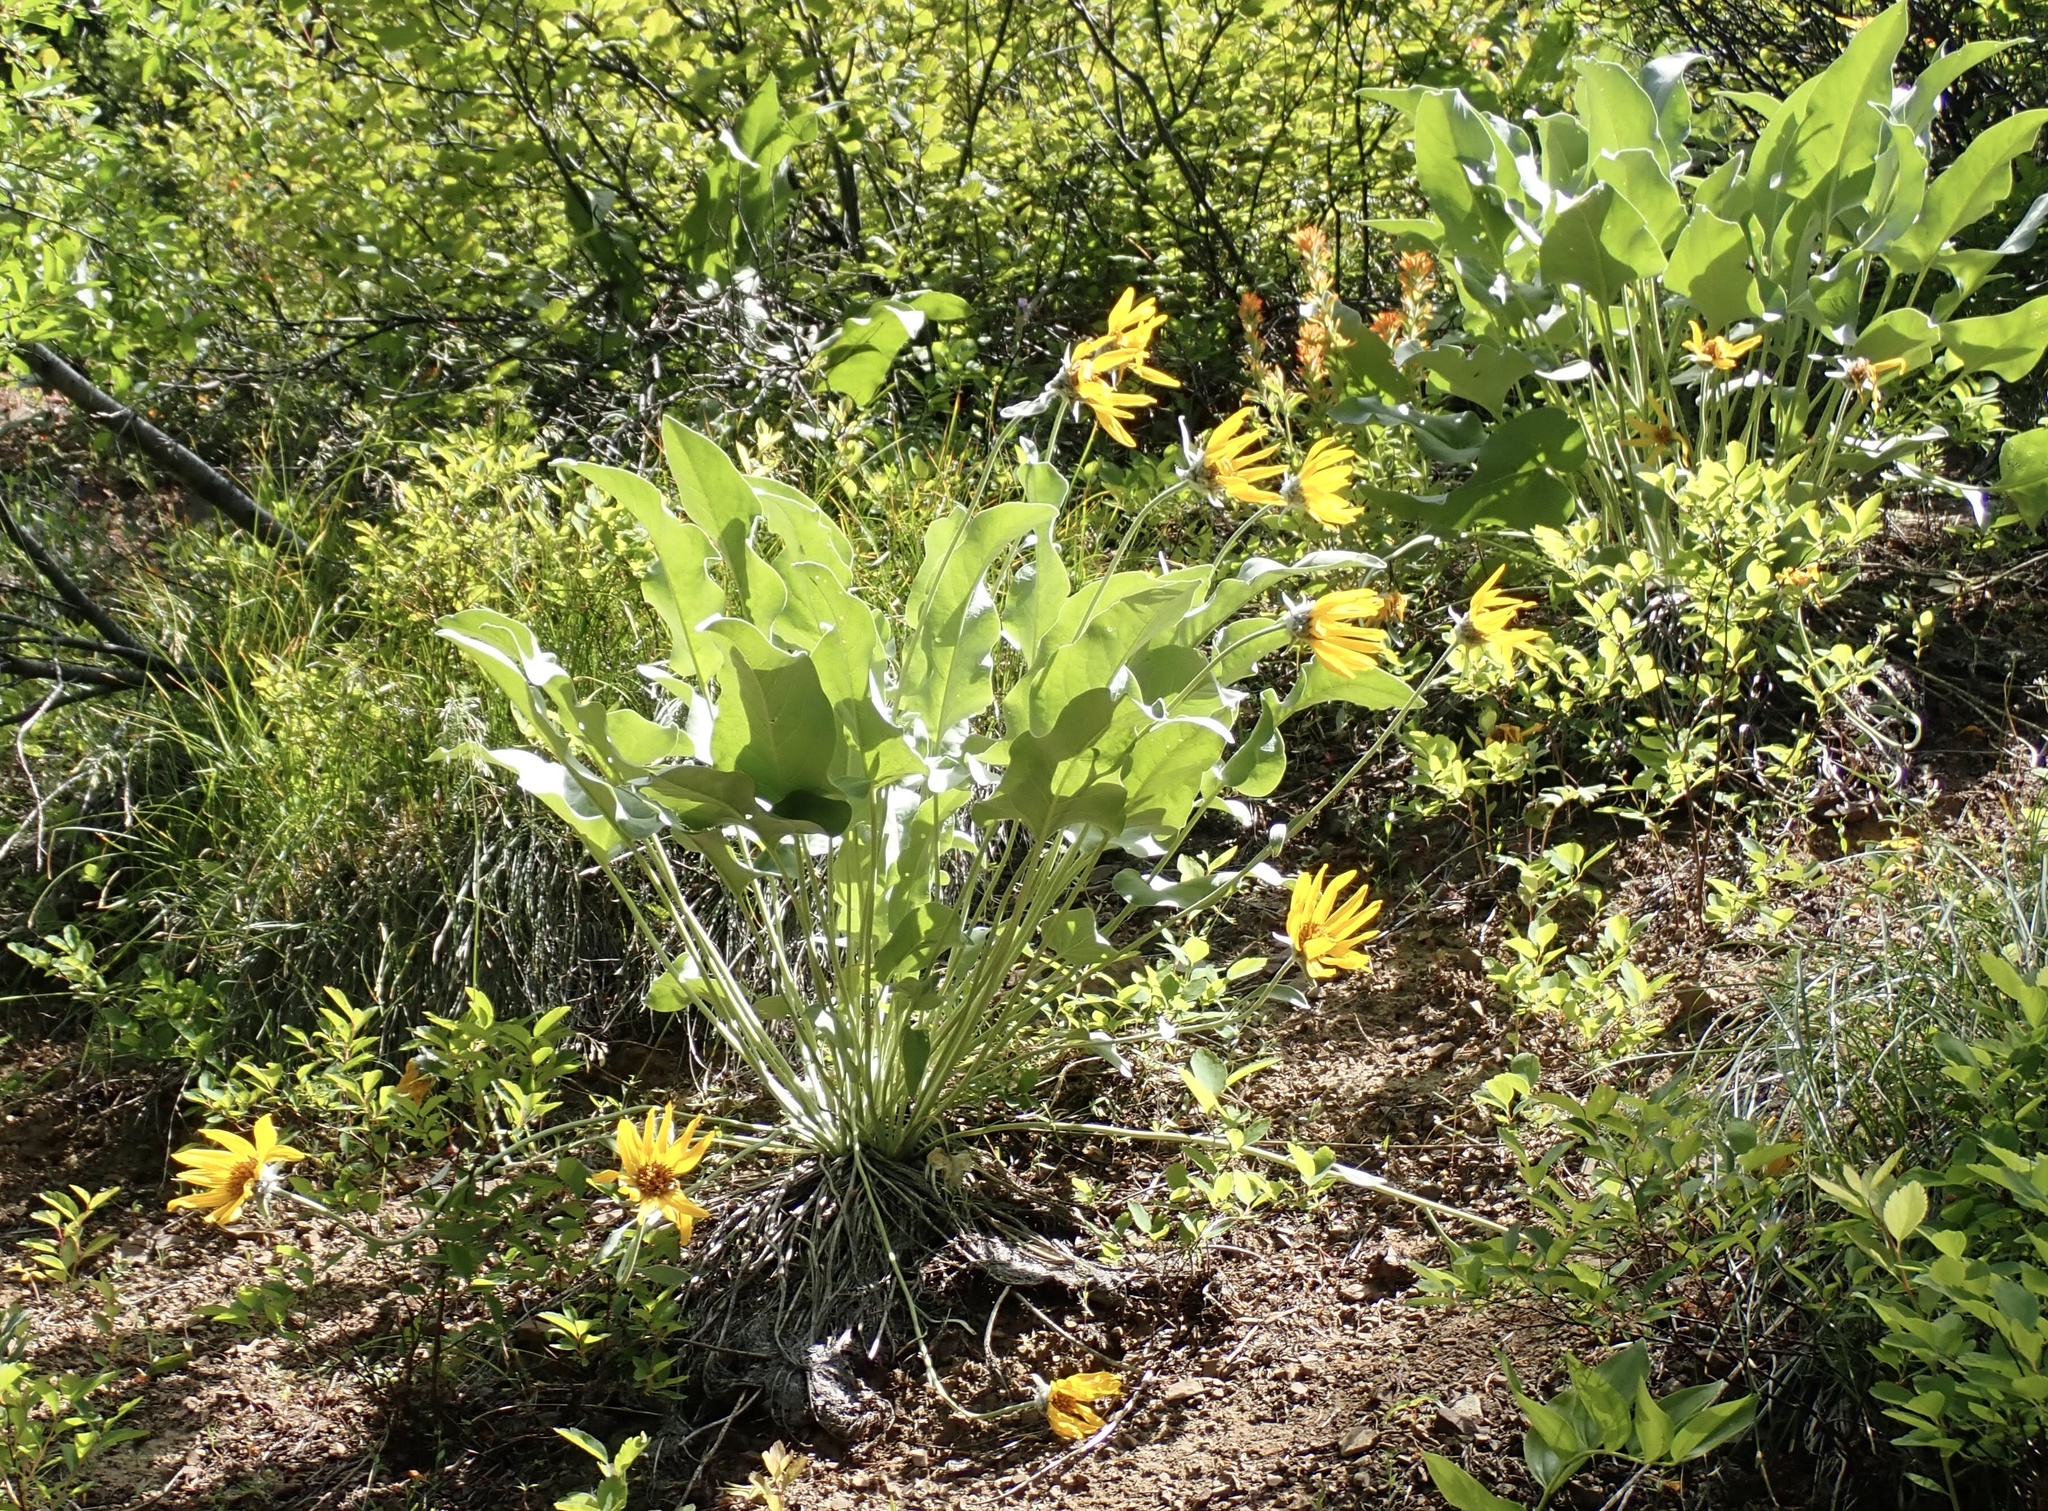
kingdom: Plantae
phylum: Tracheophyta
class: Magnoliopsida
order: Asterales
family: Asteraceae
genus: Wyethia
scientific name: Wyethia sagittata
